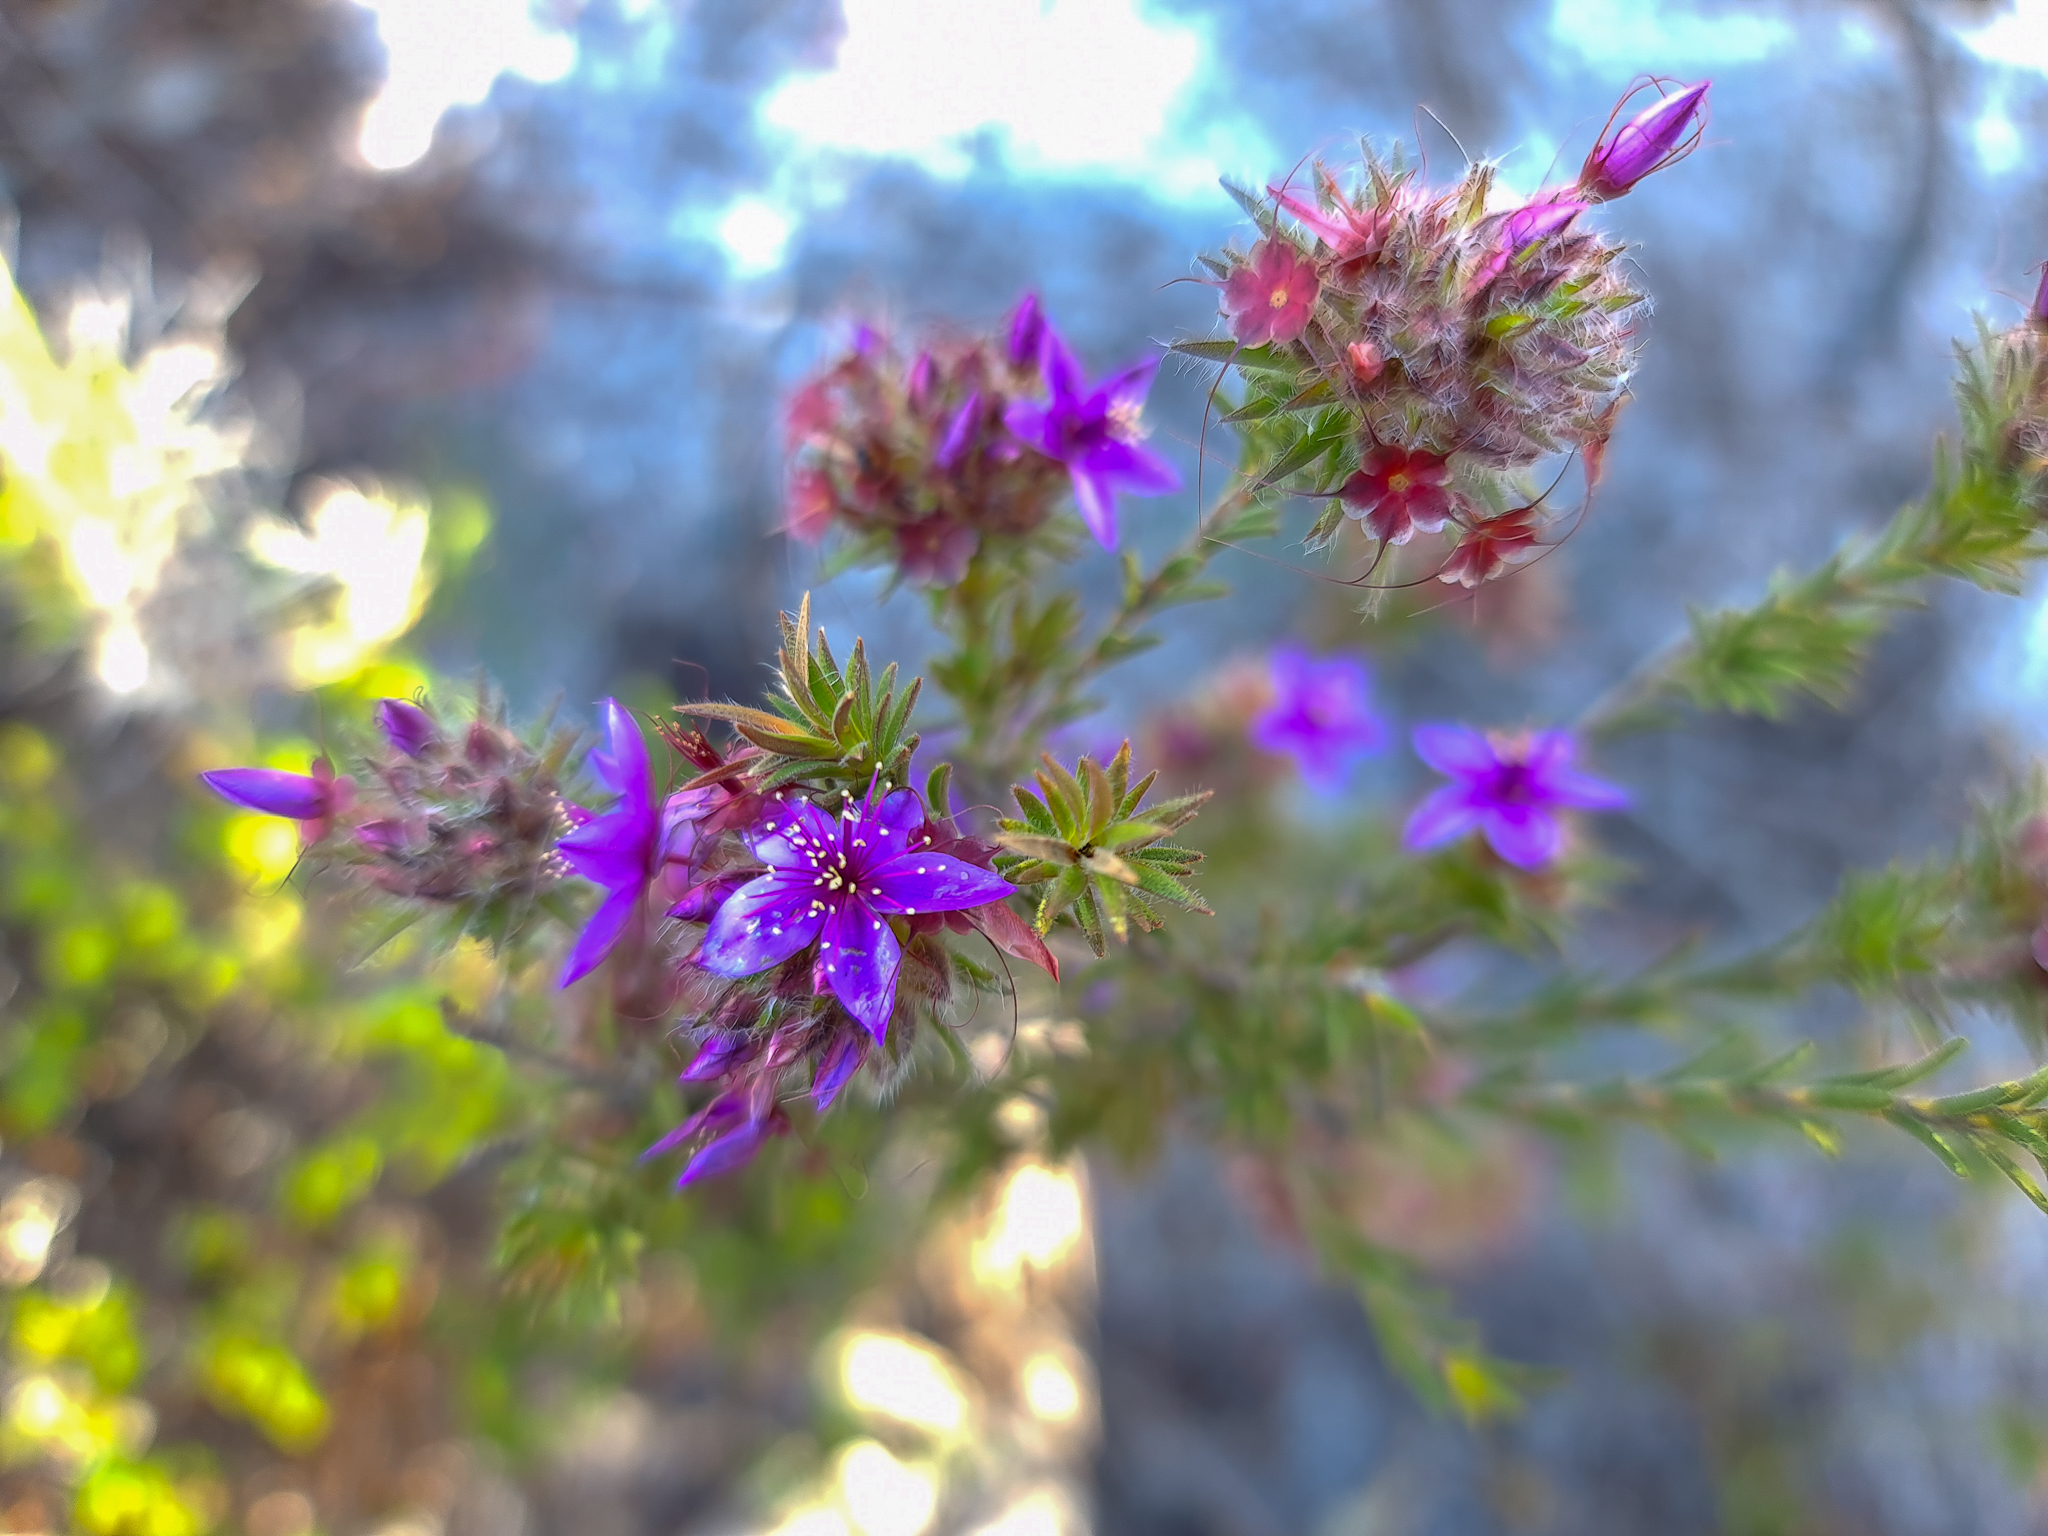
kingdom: Plantae
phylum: Tracheophyta
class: Magnoliopsida
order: Myrtales
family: Myrtaceae
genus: Calytrix
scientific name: Calytrix sapphirina
